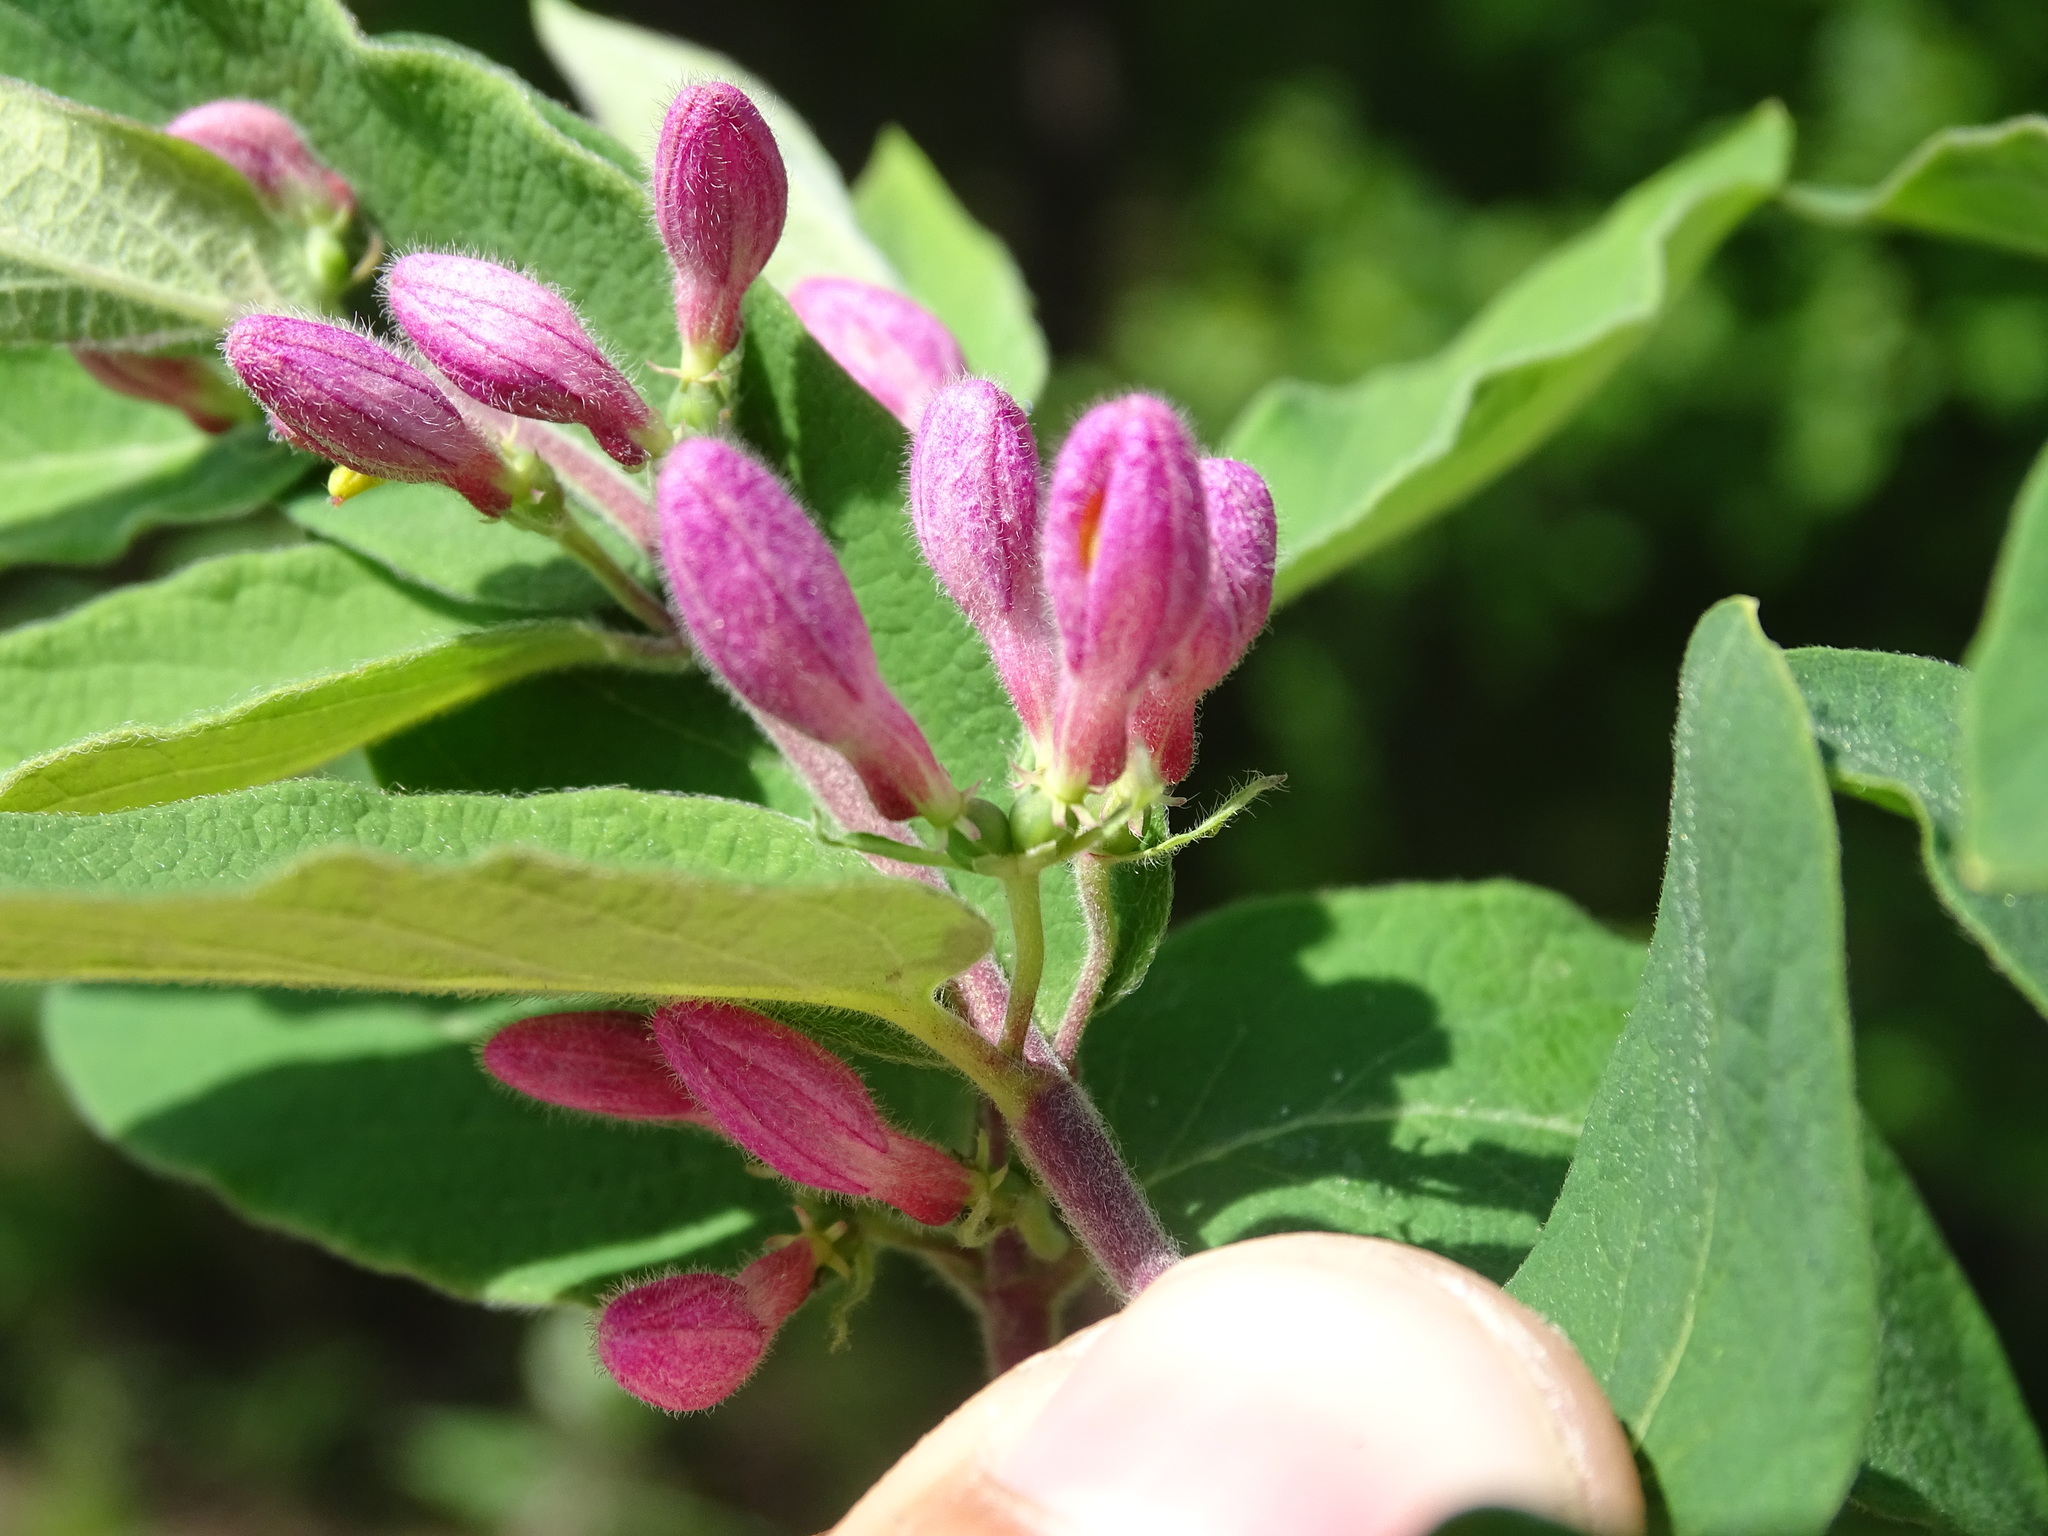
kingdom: Plantae
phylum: Tracheophyta
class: Magnoliopsida
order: Dipsacales
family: Caprifoliaceae
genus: Lonicera
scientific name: Lonicera bella
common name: Bell's honeysuckle
